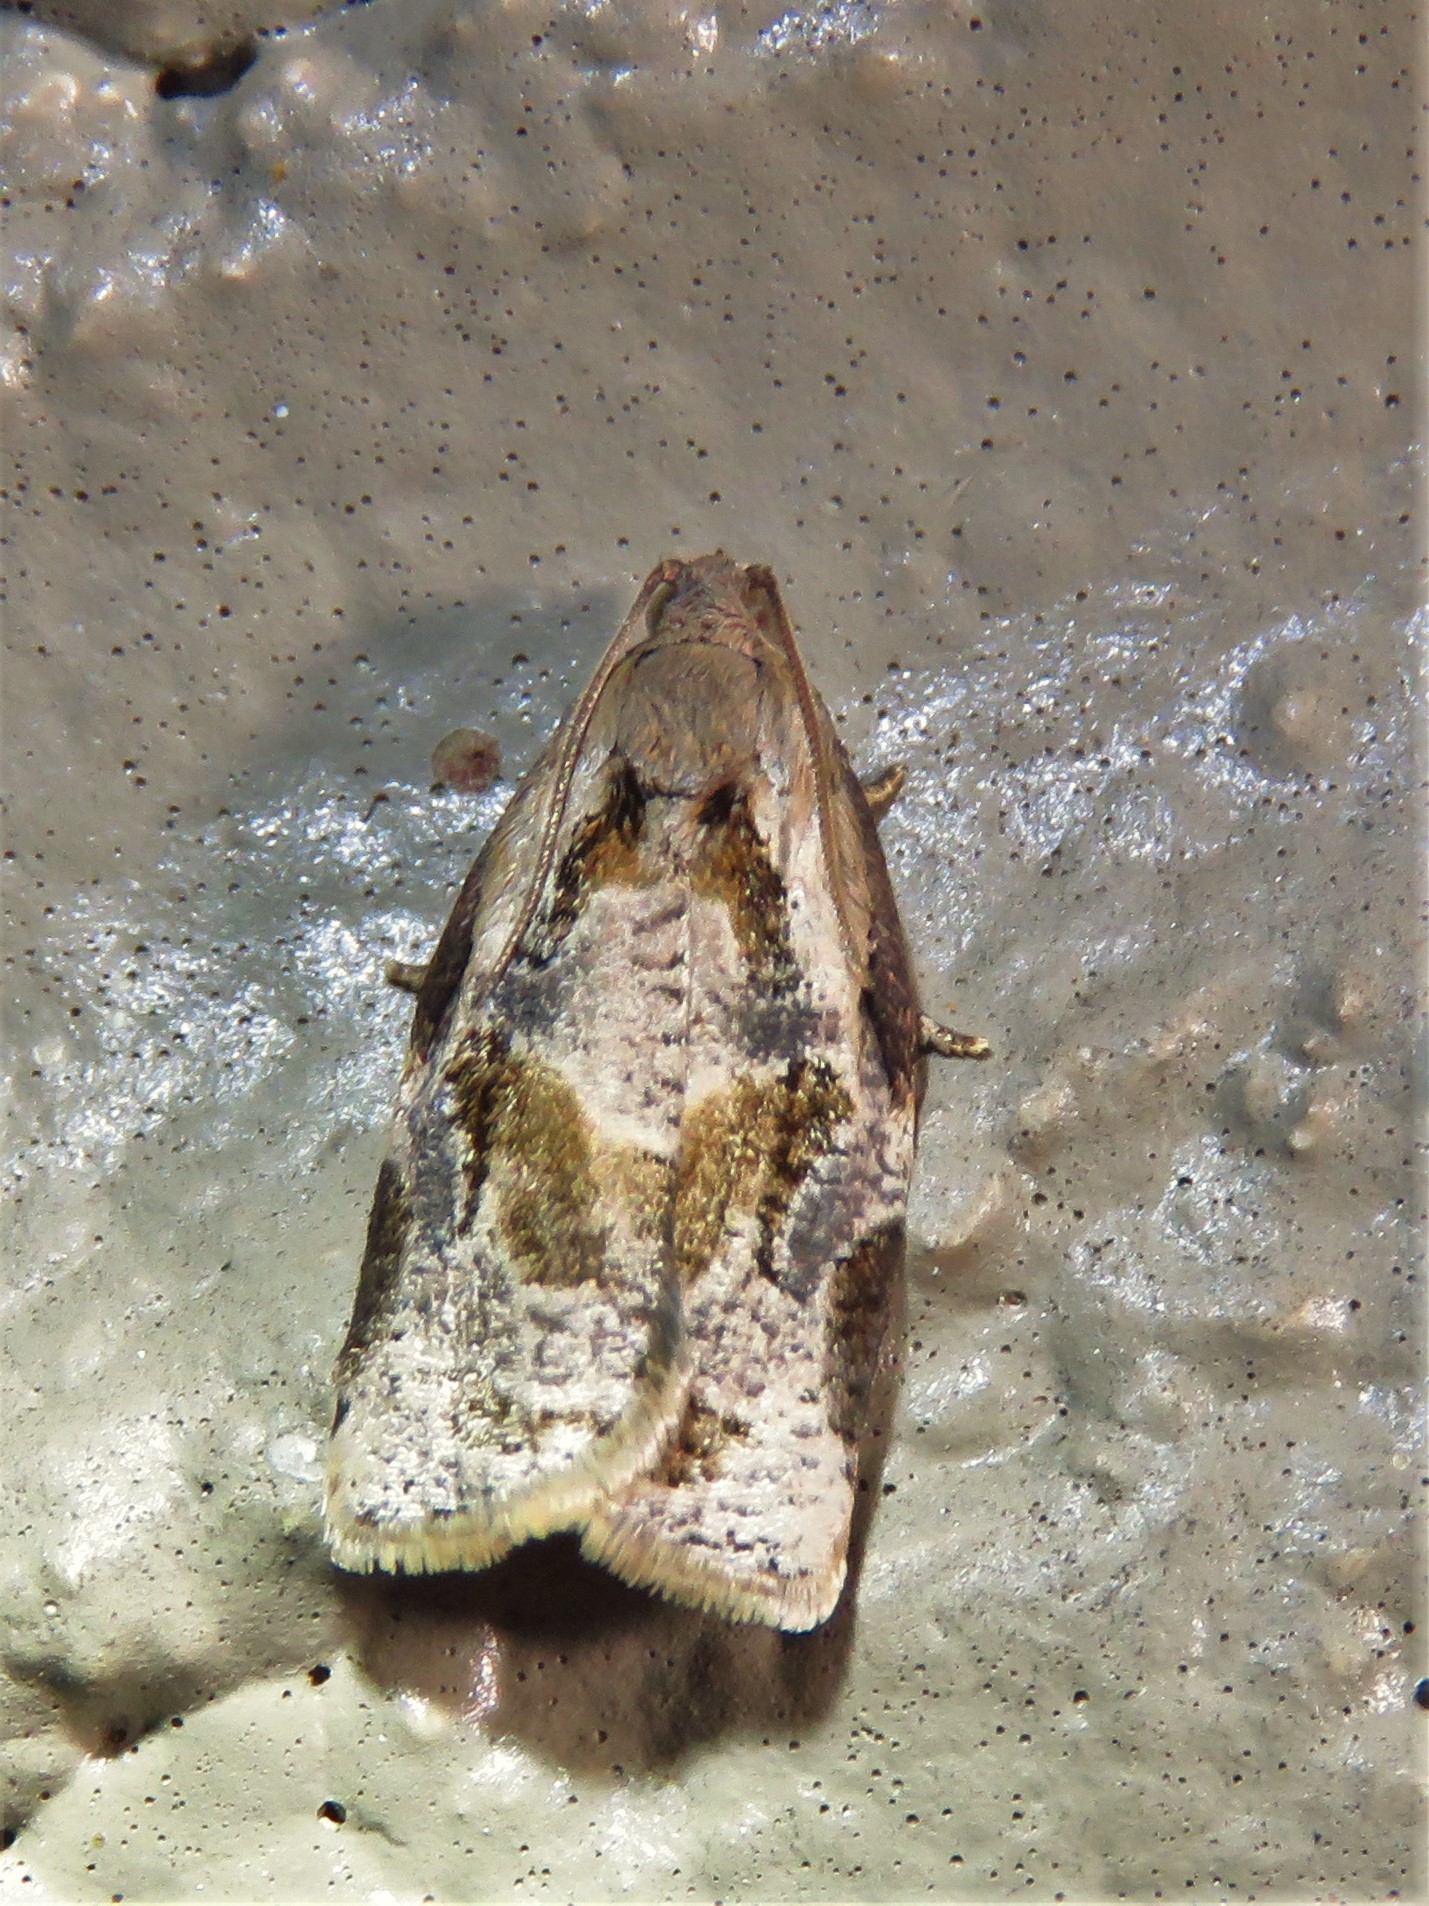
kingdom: Animalia
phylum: Arthropoda
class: Insecta
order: Lepidoptera
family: Tortricidae
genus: Archips
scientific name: Archips grisea
